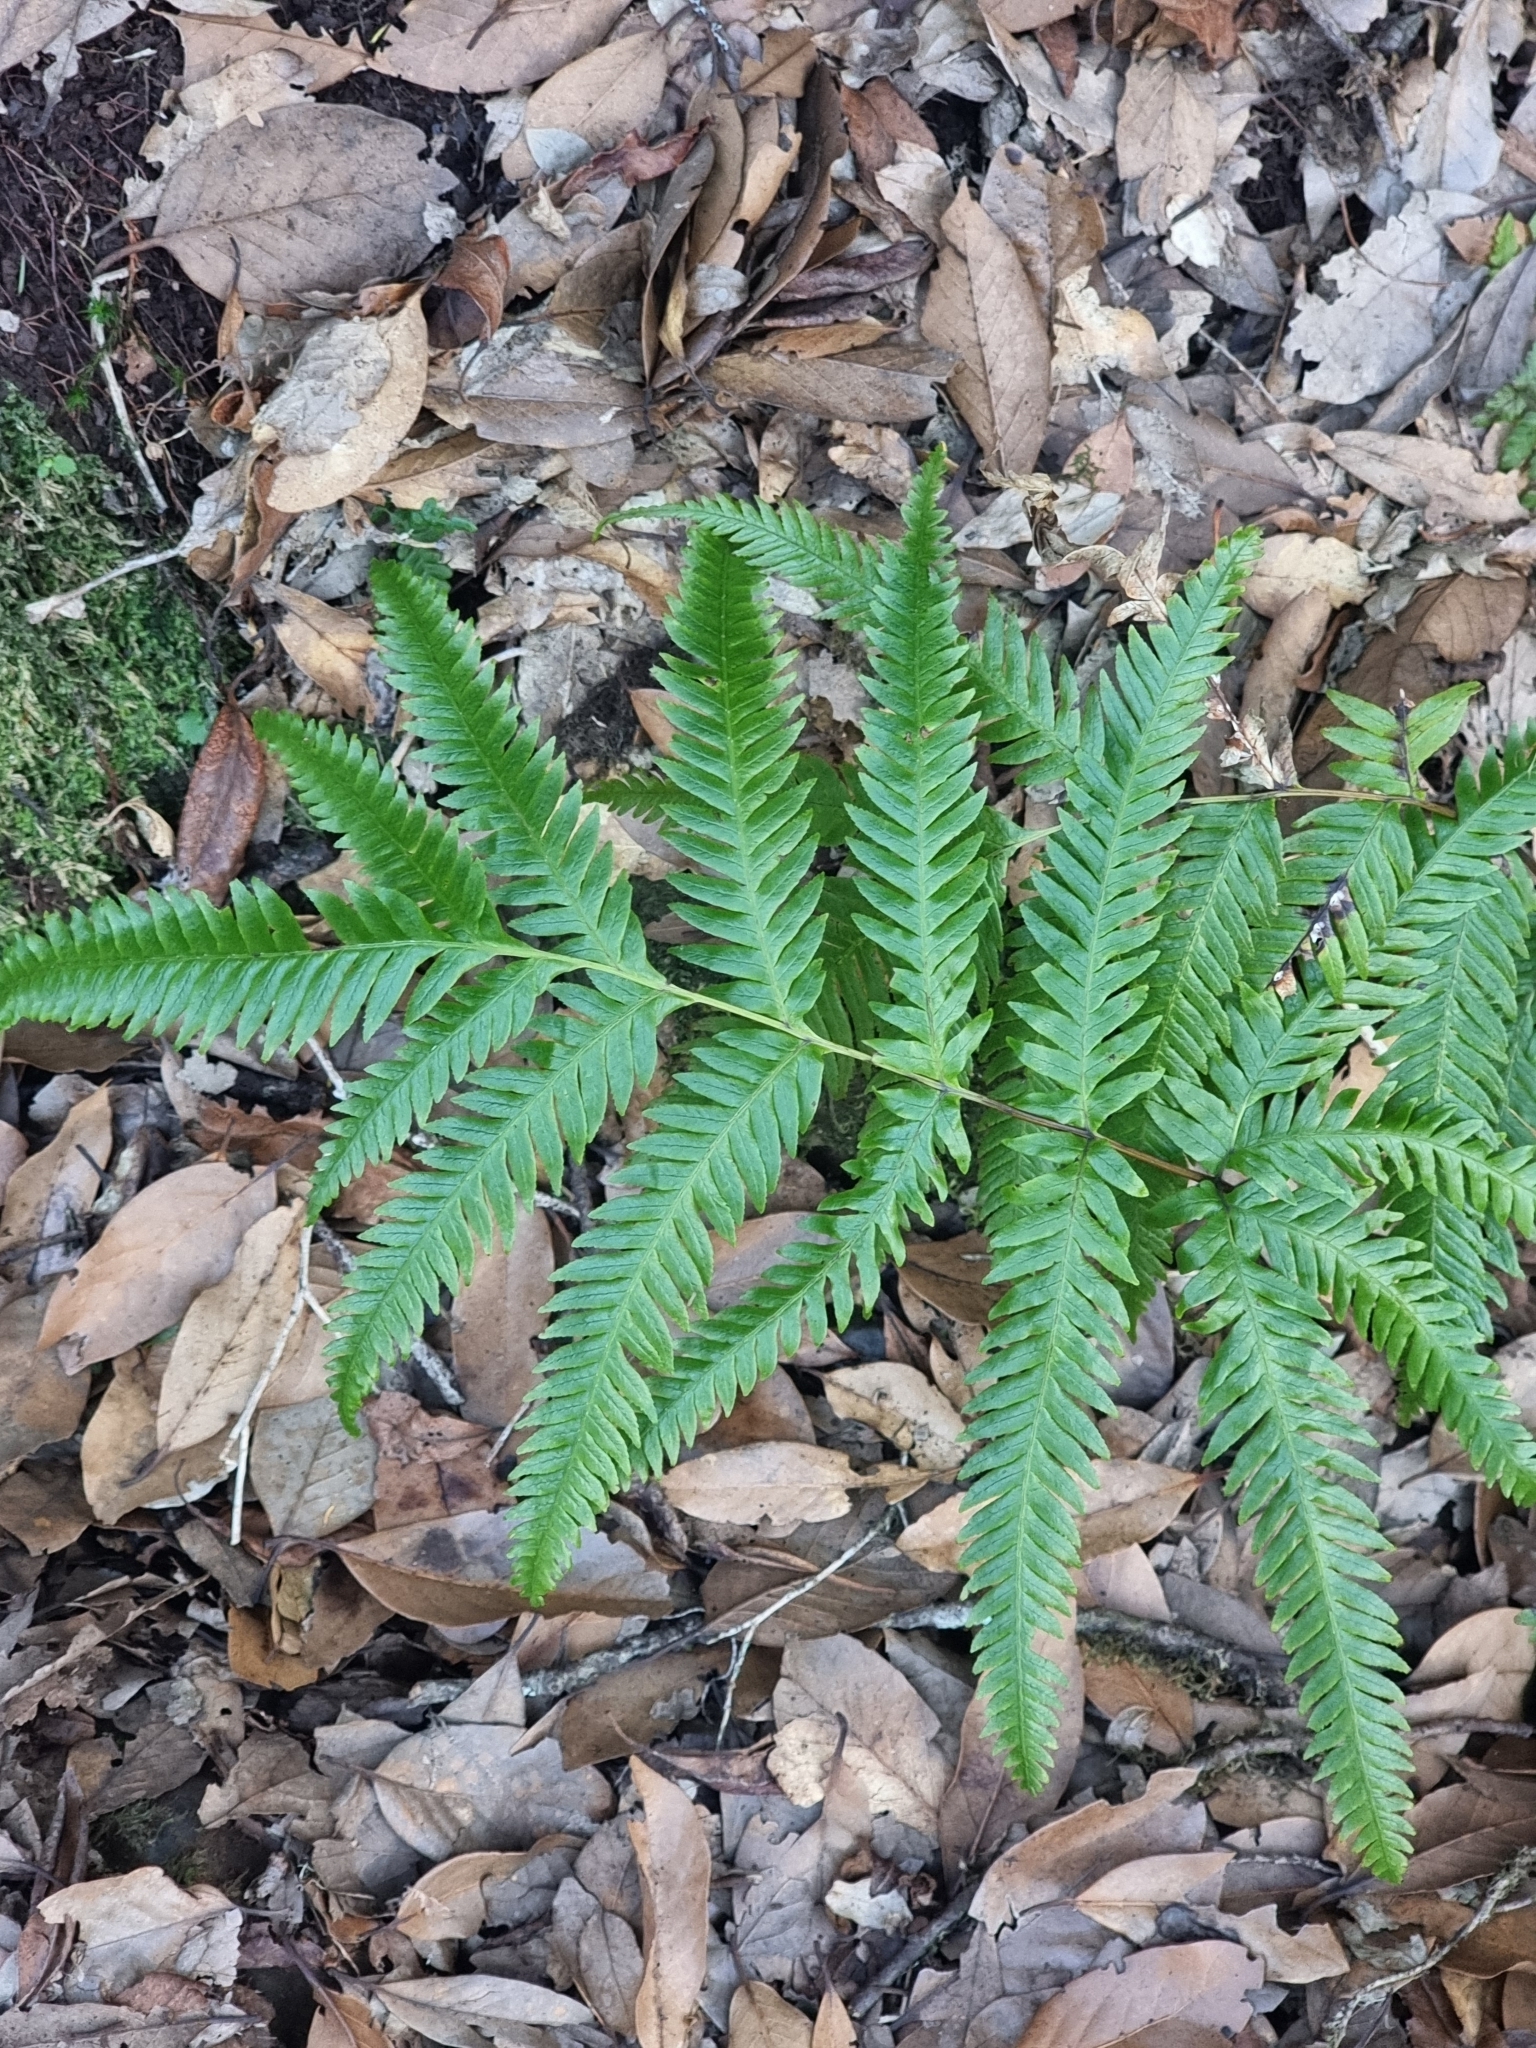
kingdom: Plantae
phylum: Tracheophyta
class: Polypodiopsida
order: Polypodiales
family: Pteridaceae
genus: Pteris
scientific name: Pteris incompleta
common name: Laurisilva brake
